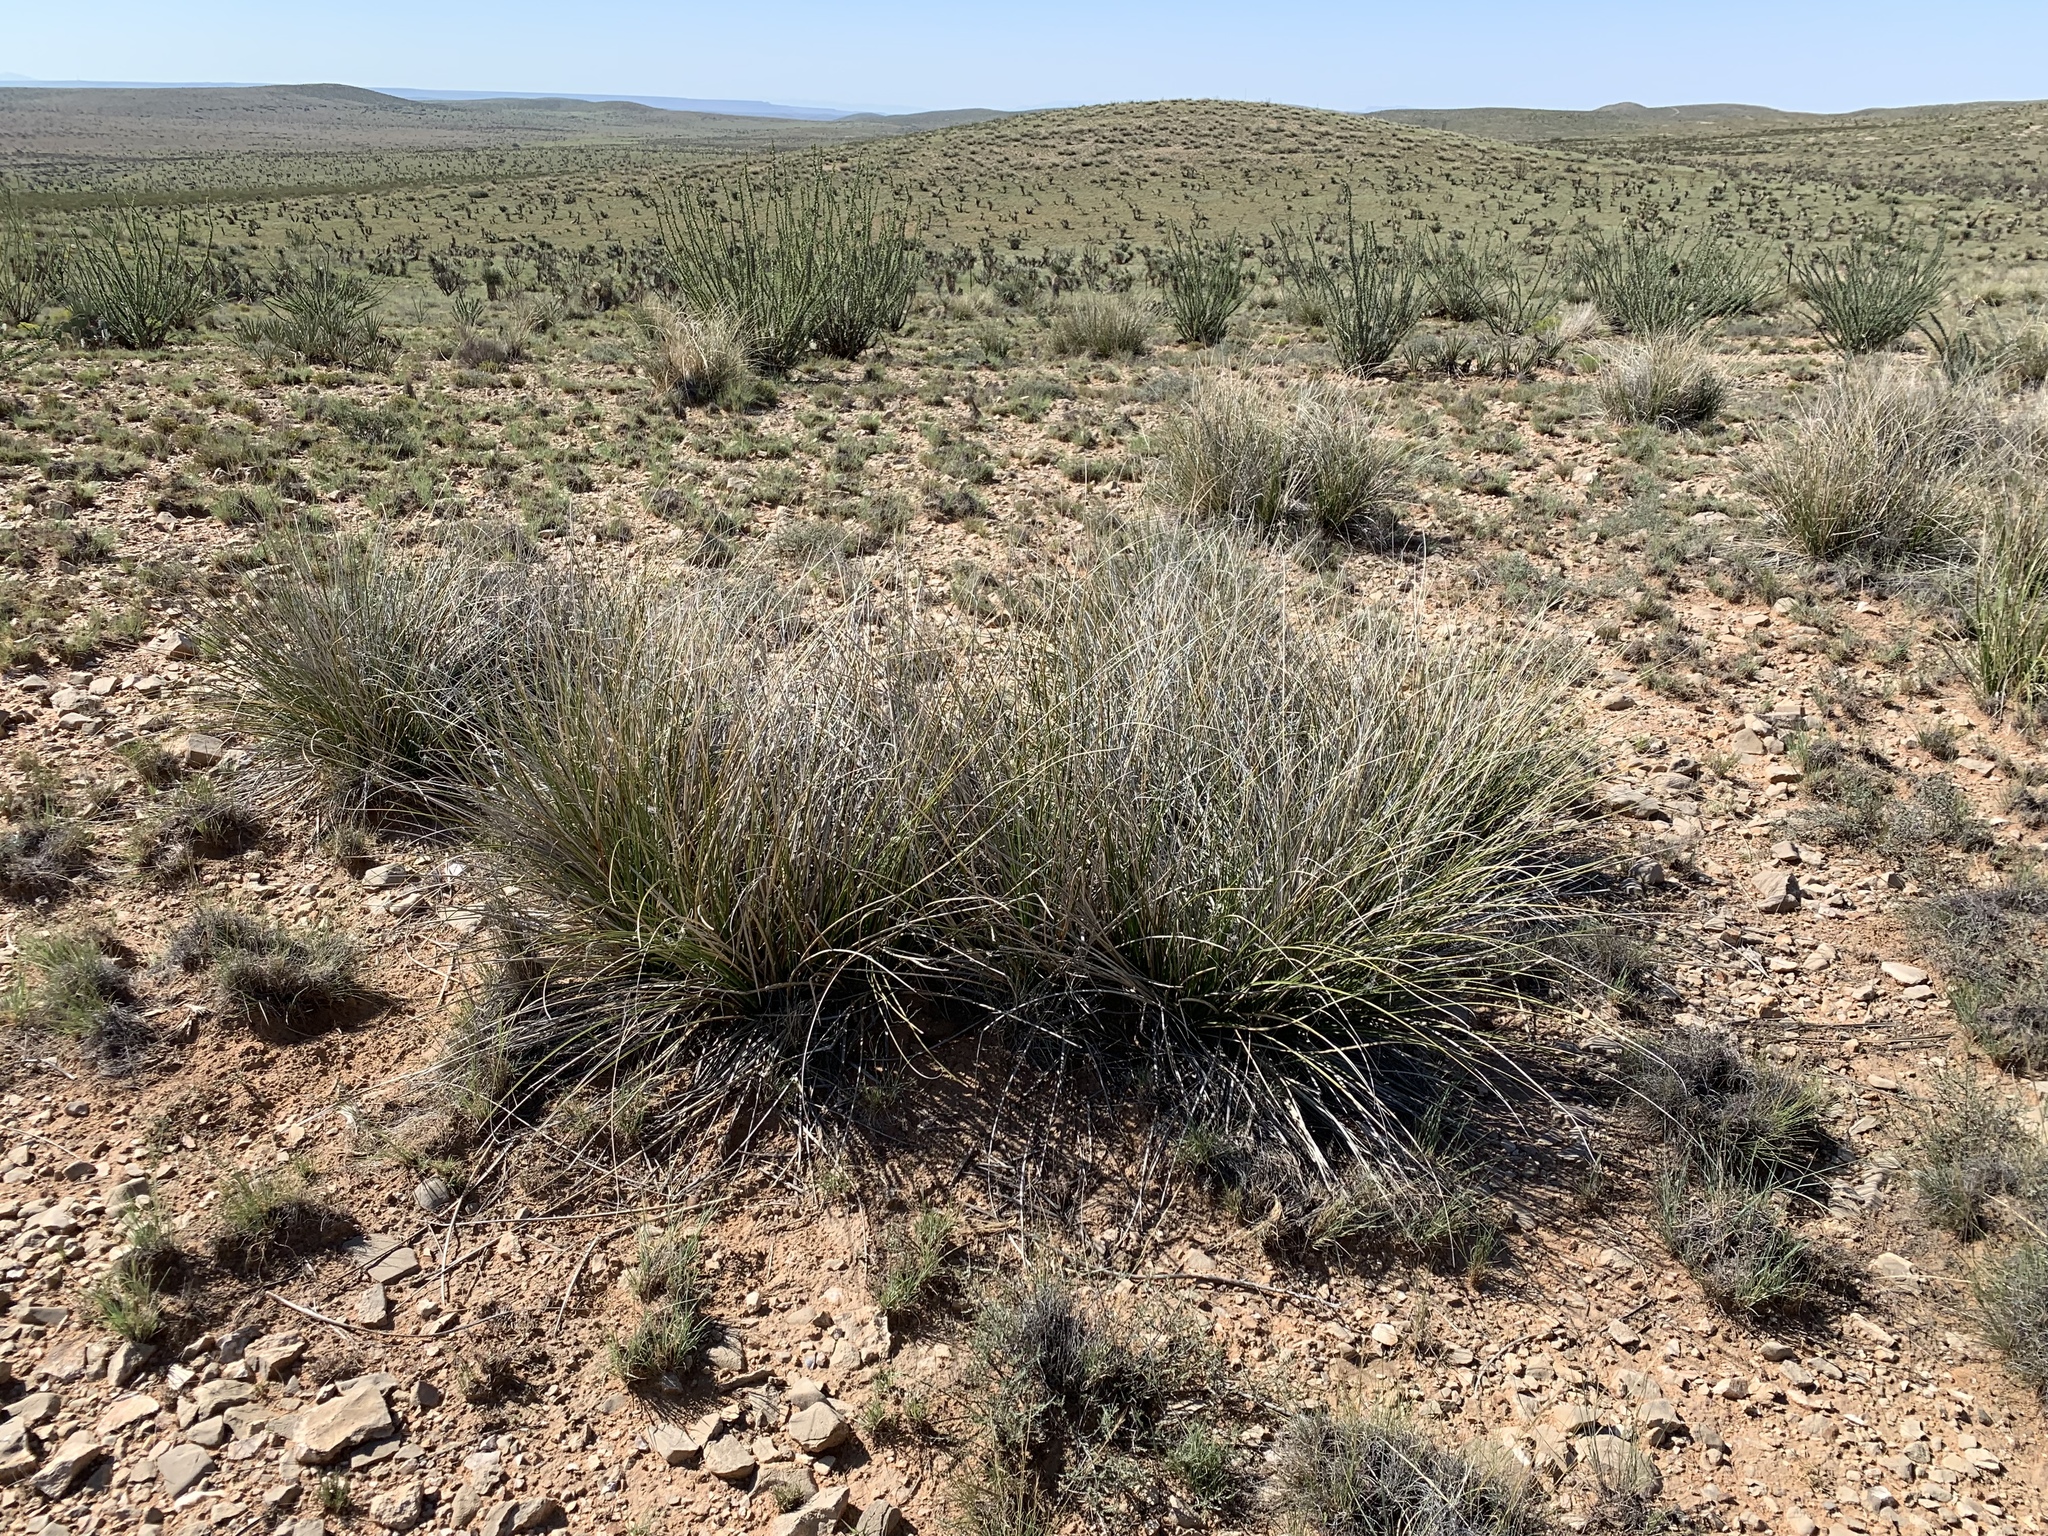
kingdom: Plantae
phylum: Tracheophyta
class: Liliopsida
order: Asparagales
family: Asparagaceae
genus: Nolina
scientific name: Nolina texana
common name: Texas sacahuiste
